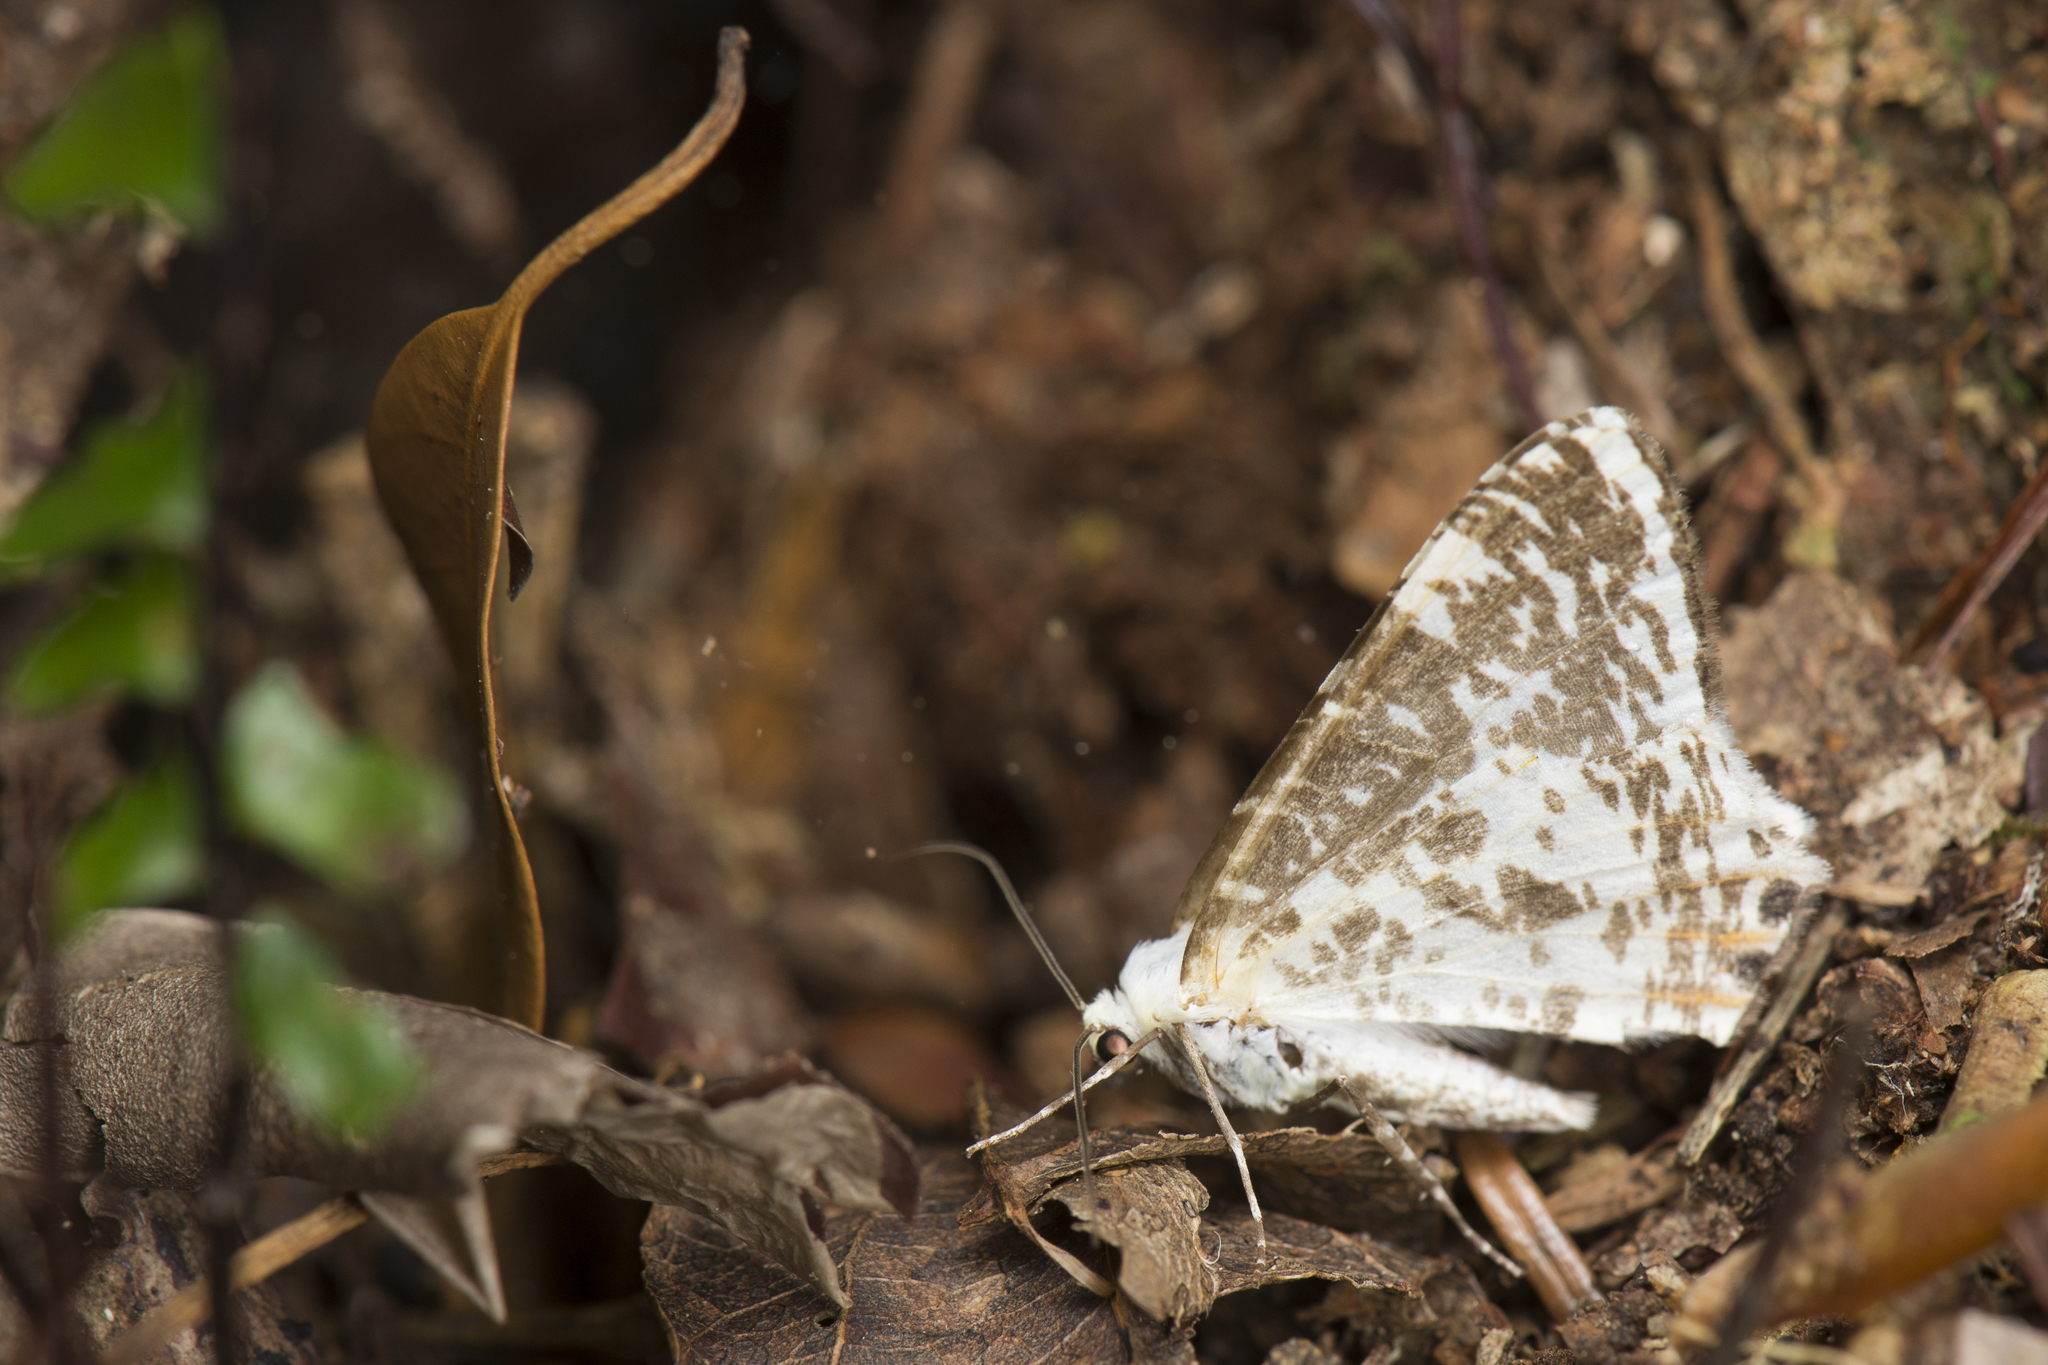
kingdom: Animalia
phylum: Arthropoda
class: Insecta
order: Lepidoptera
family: Geometridae
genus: Ourapteryx
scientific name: Ourapteryx ramosa
